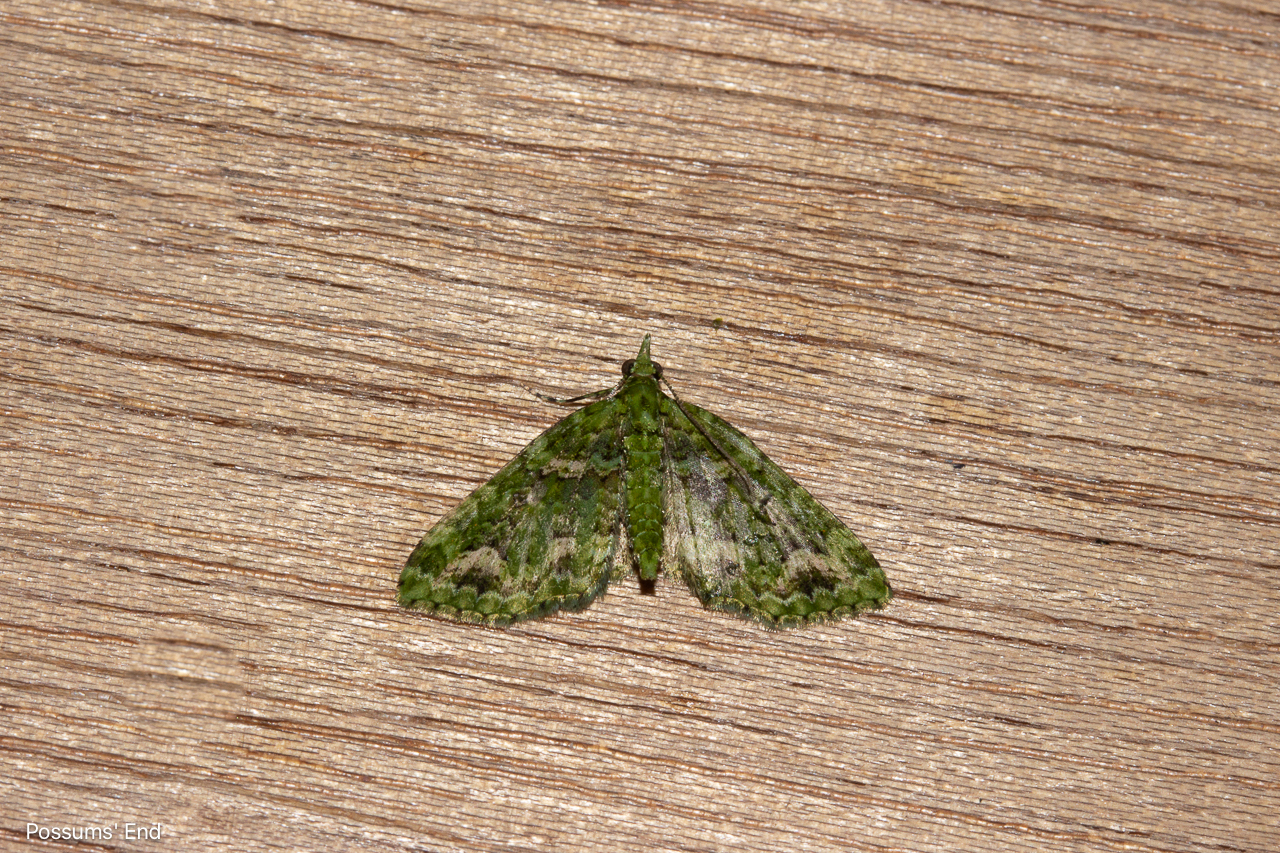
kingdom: Animalia
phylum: Arthropoda
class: Insecta
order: Lepidoptera
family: Geometridae
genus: Pasiphila
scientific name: Pasiphila muscosata
